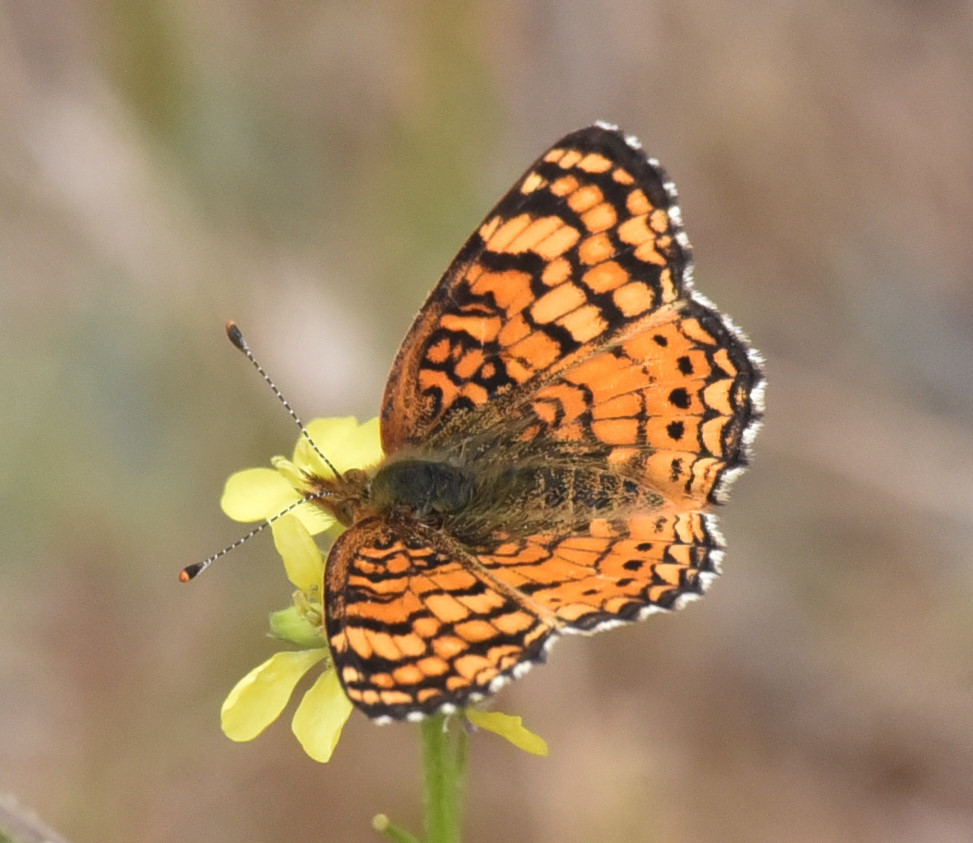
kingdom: Animalia
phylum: Arthropoda
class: Insecta
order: Lepidoptera
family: Nymphalidae
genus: Eresia
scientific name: Eresia aveyrona
